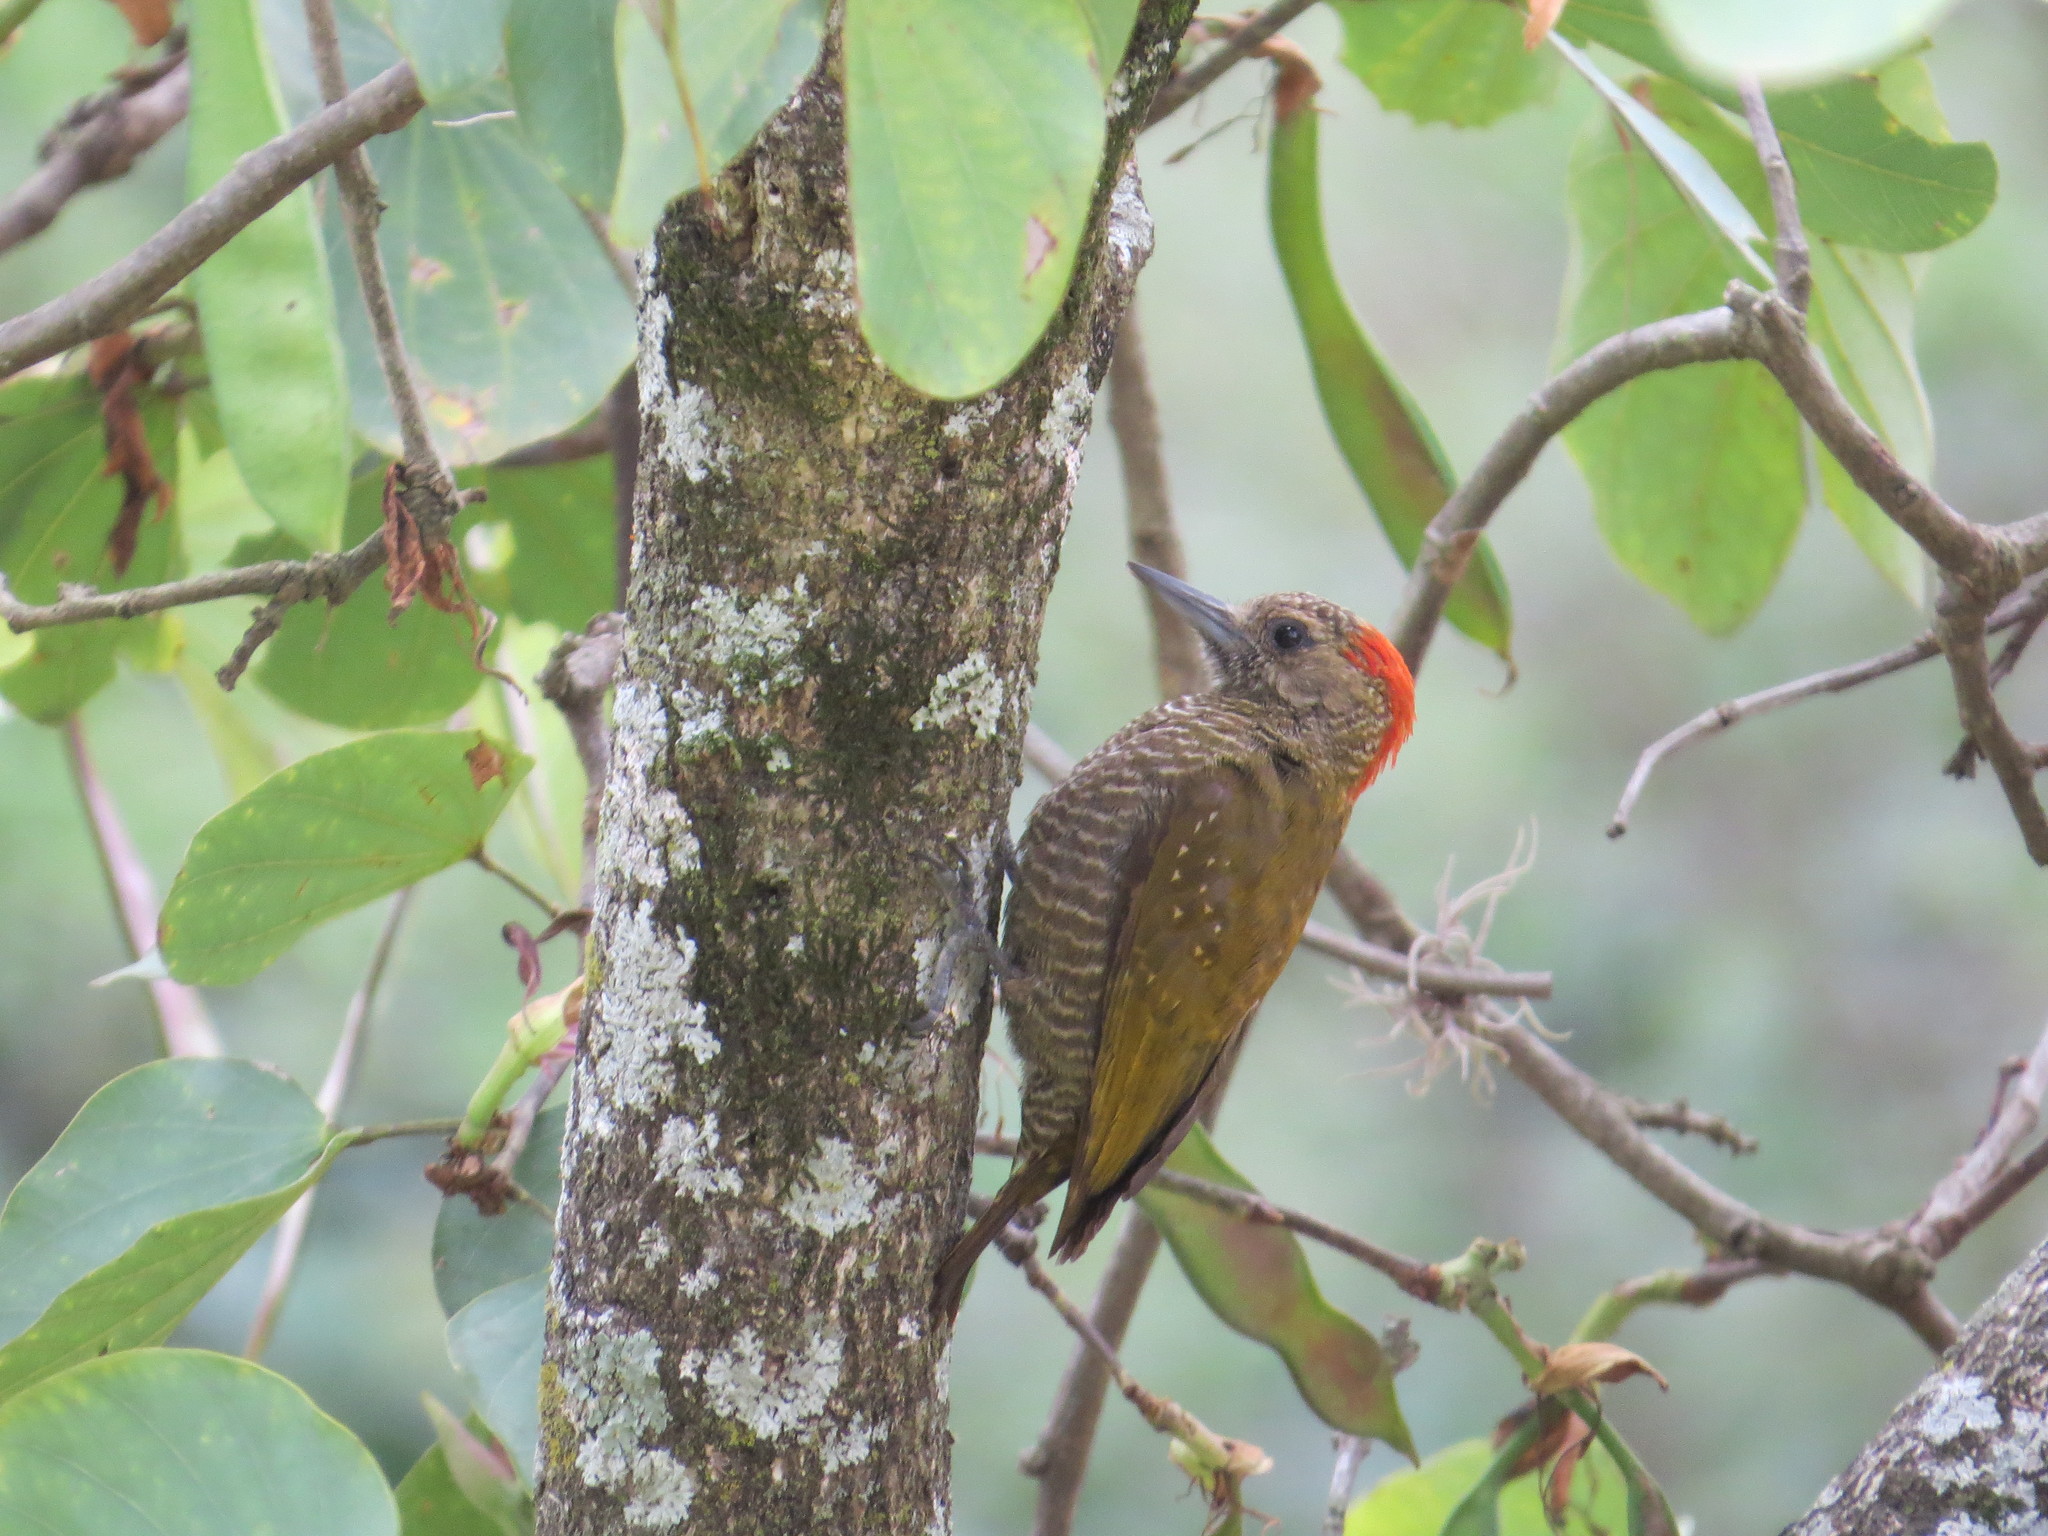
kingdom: Animalia
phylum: Chordata
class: Aves
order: Piciformes
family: Picidae
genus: Veniliornis
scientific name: Veniliornis passerinus
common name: Little woodpecker
